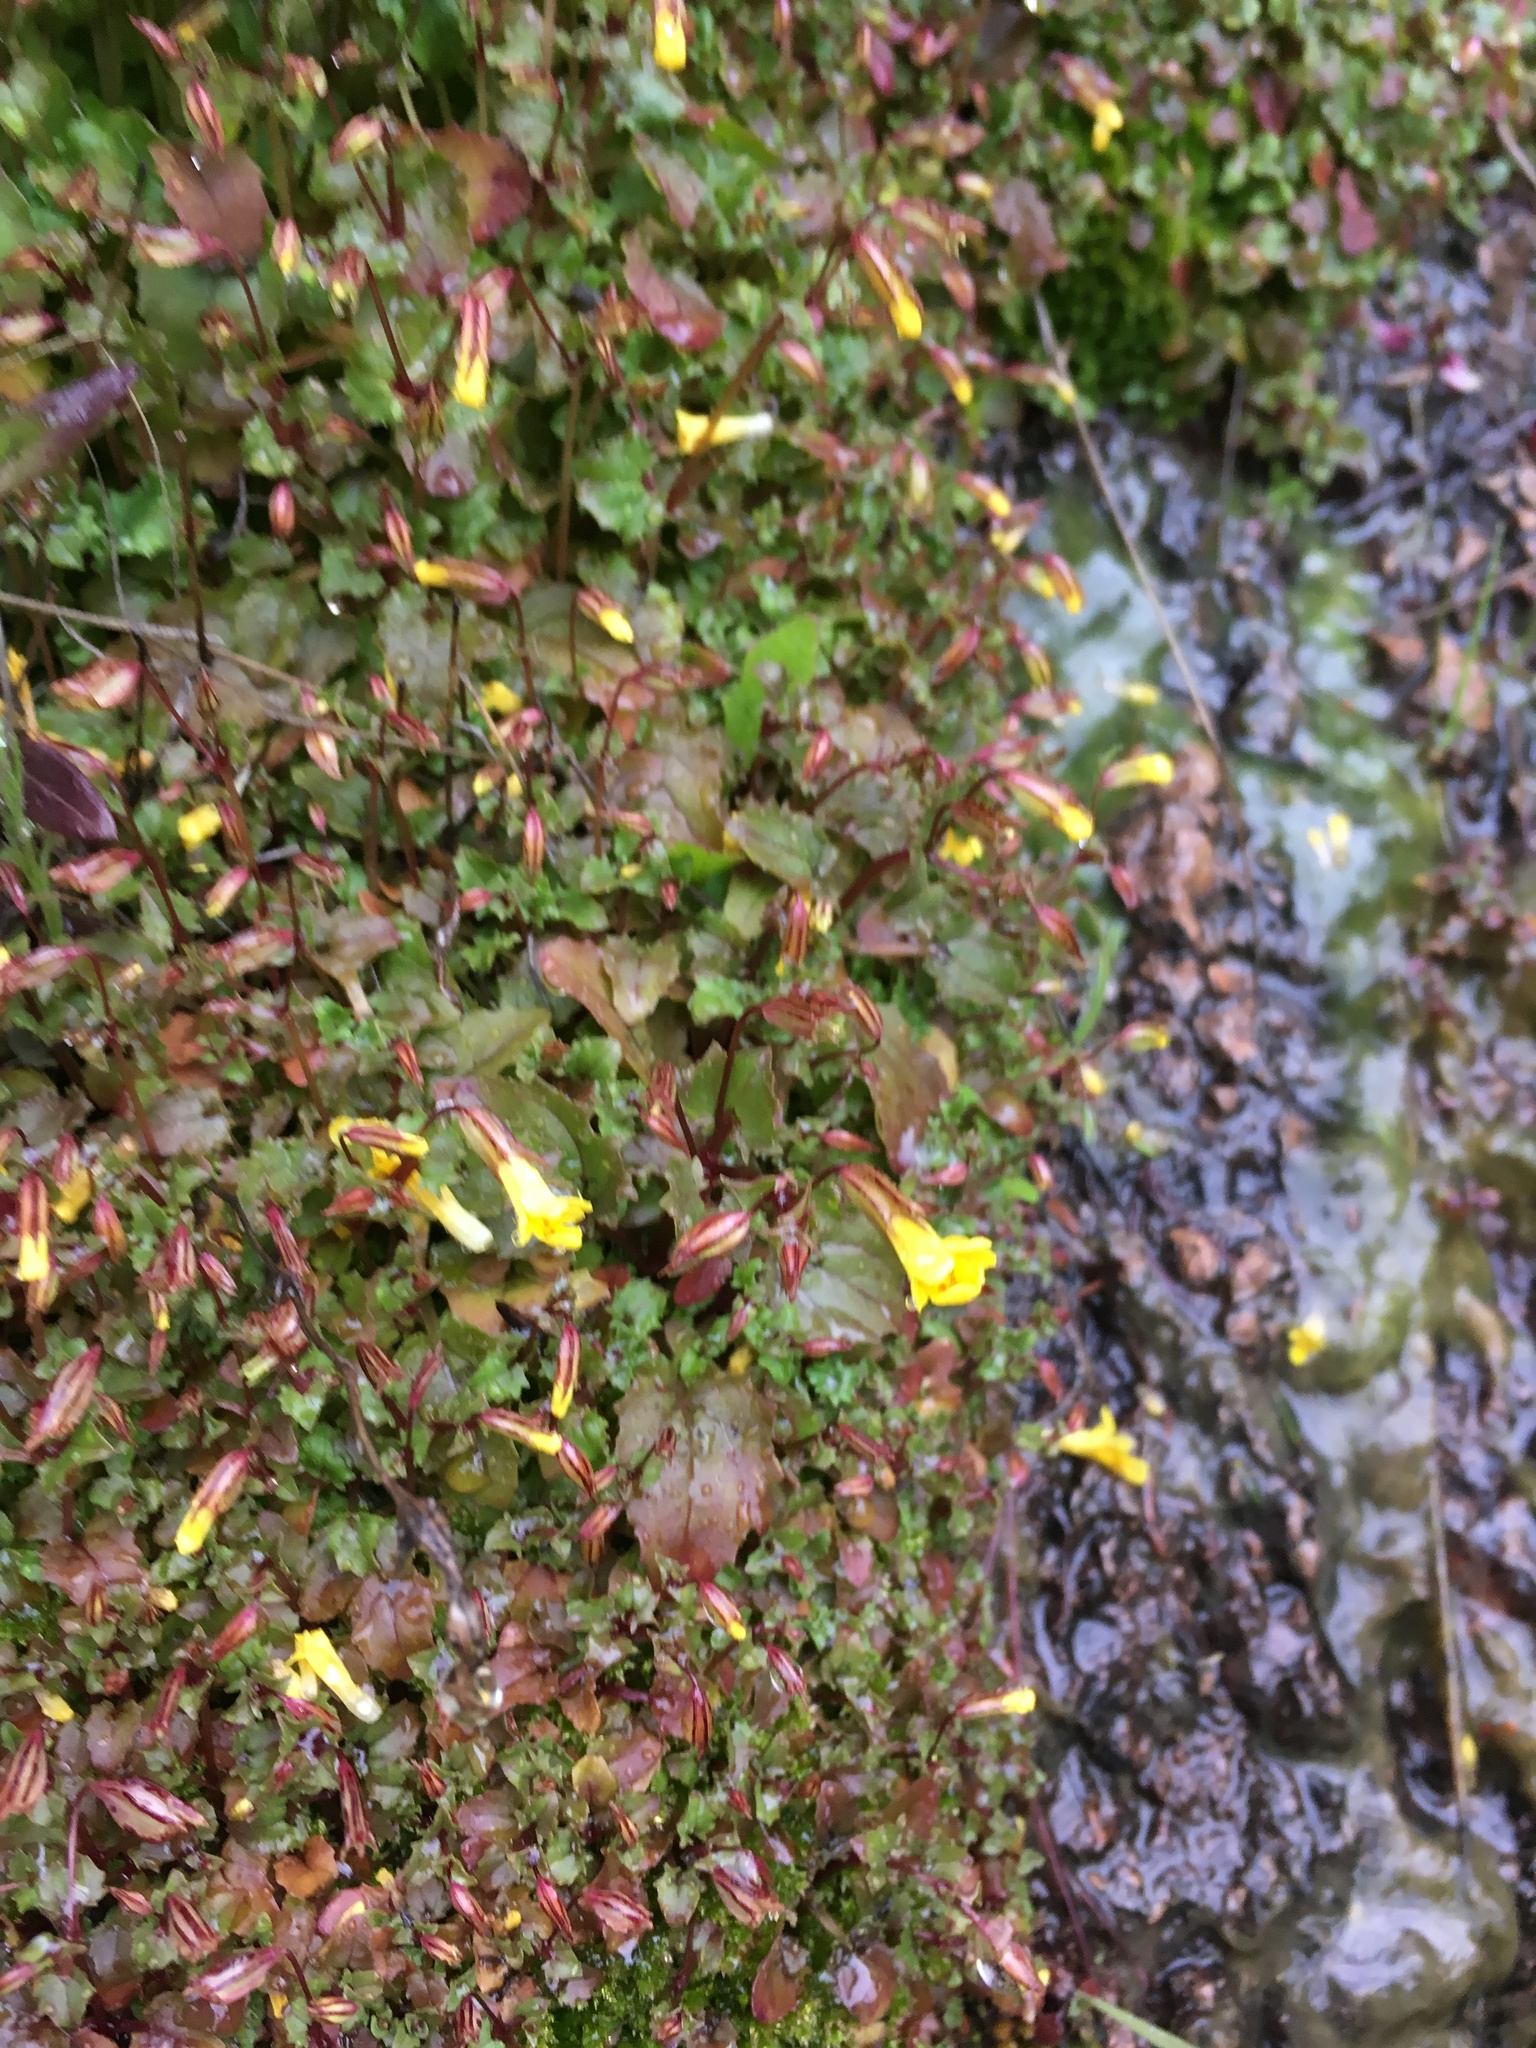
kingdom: Plantae
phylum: Tracheophyta
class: Magnoliopsida
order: Lamiales
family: Phrymaceae
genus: Erythranthe
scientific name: Erythranthe nasuta
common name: Sooke monkeyflower
